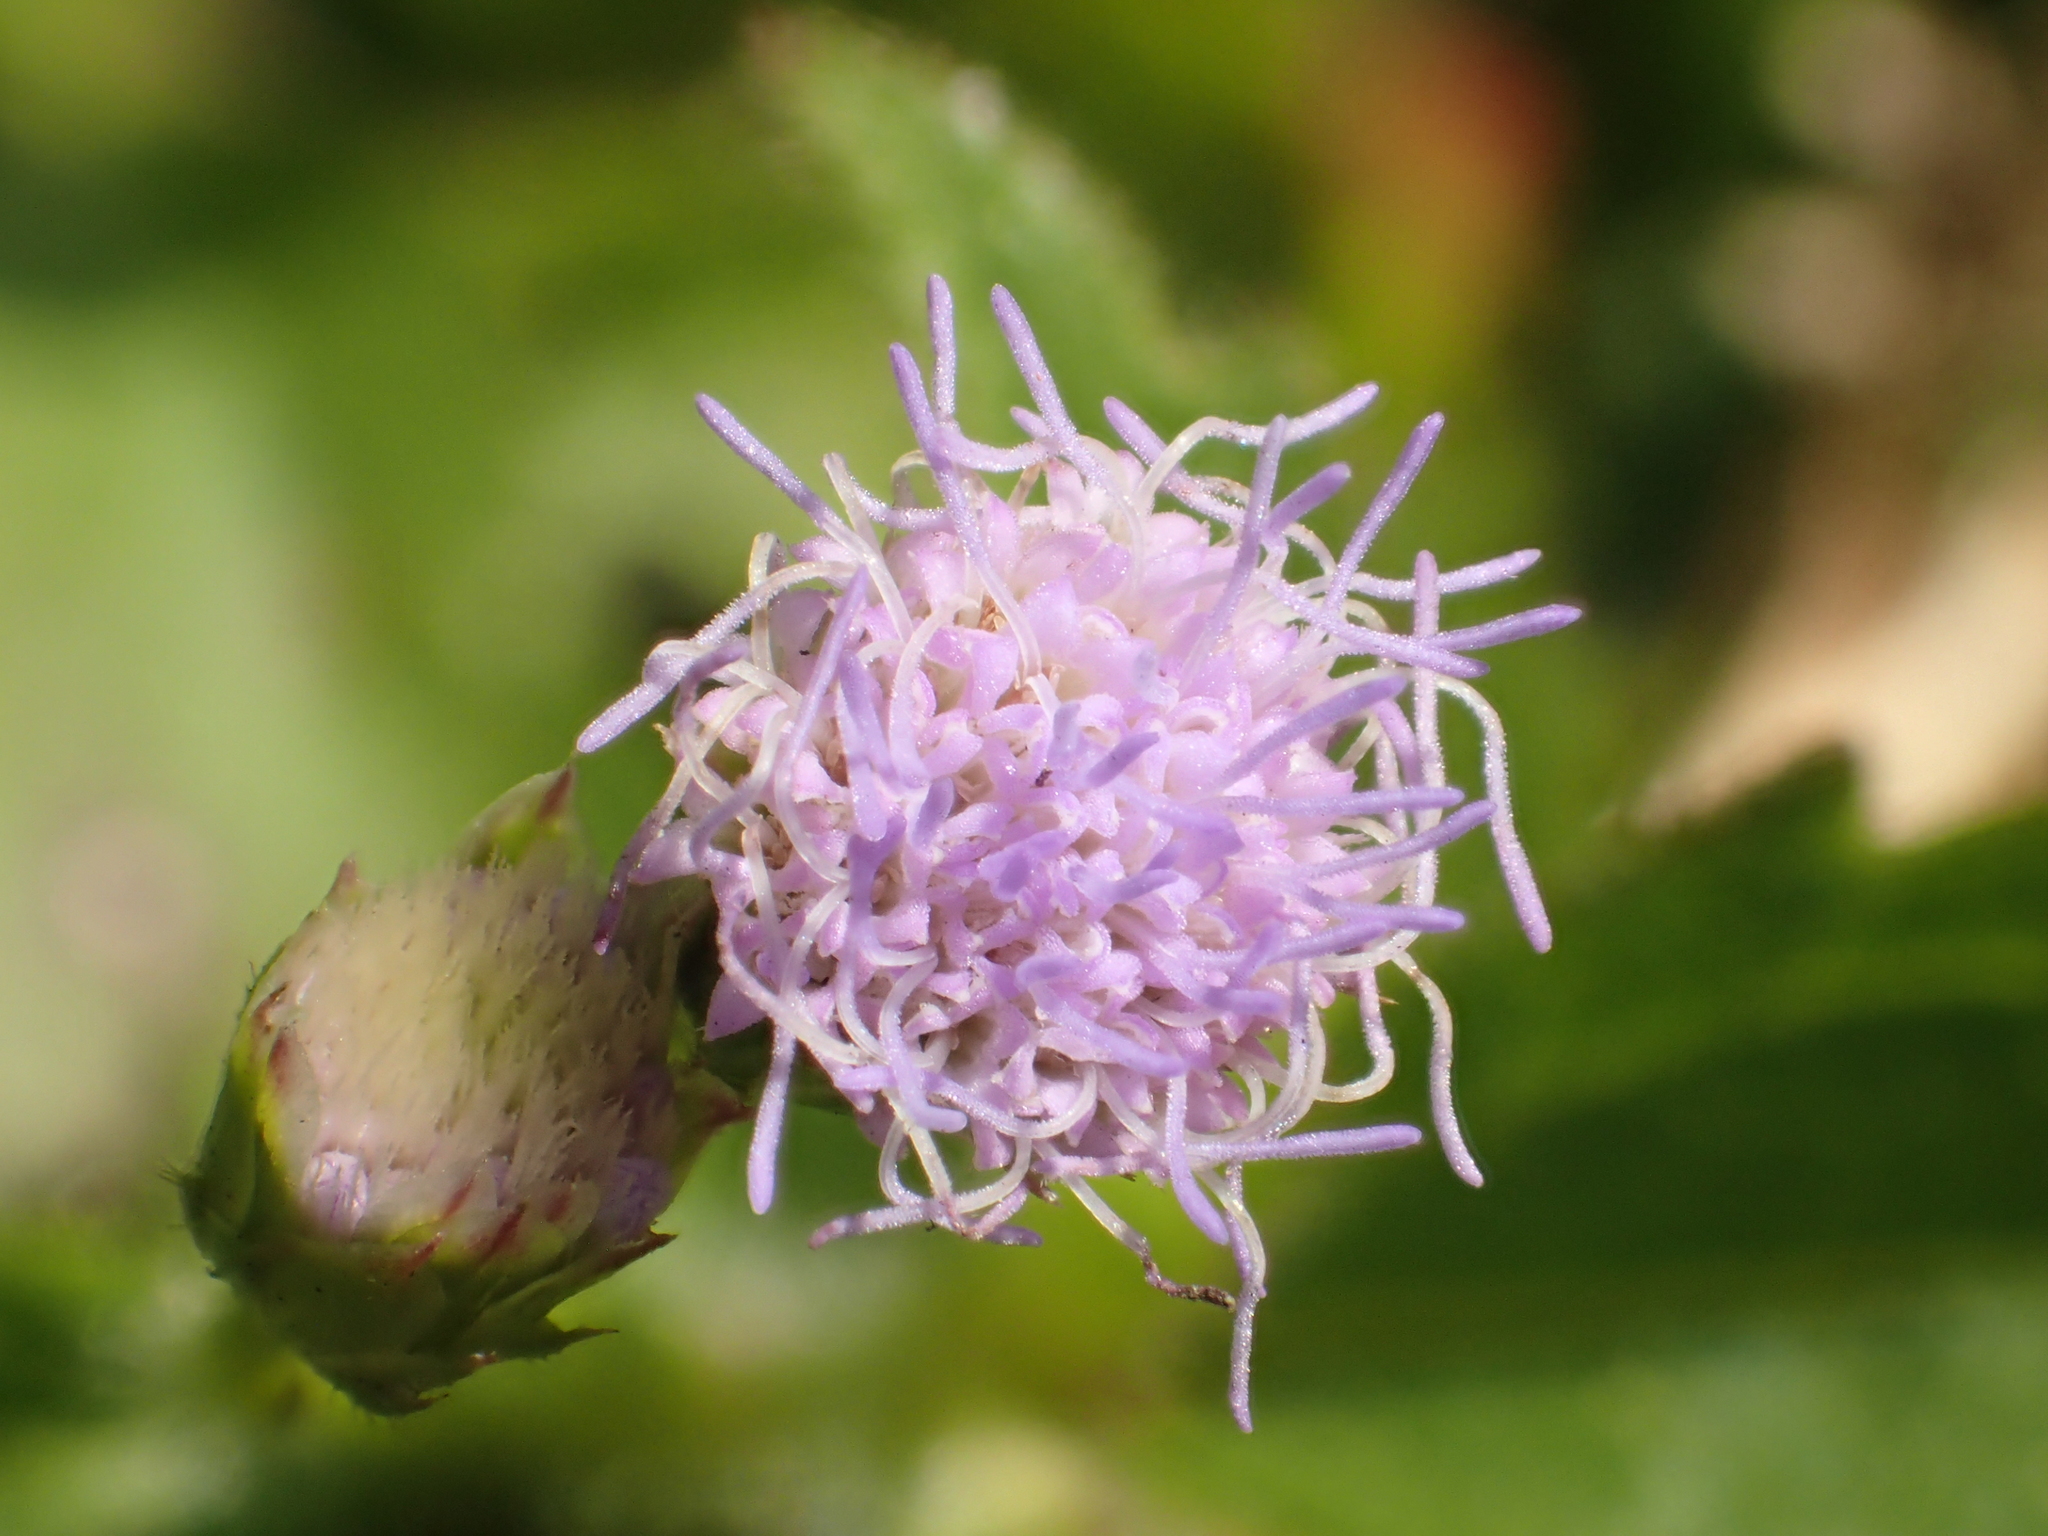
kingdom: Plantae
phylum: Tracheophyta
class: Magnoliopsida
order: Asterales
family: Asteraceae
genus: Praxelis
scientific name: Praxelis clematidea
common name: Praxelis
